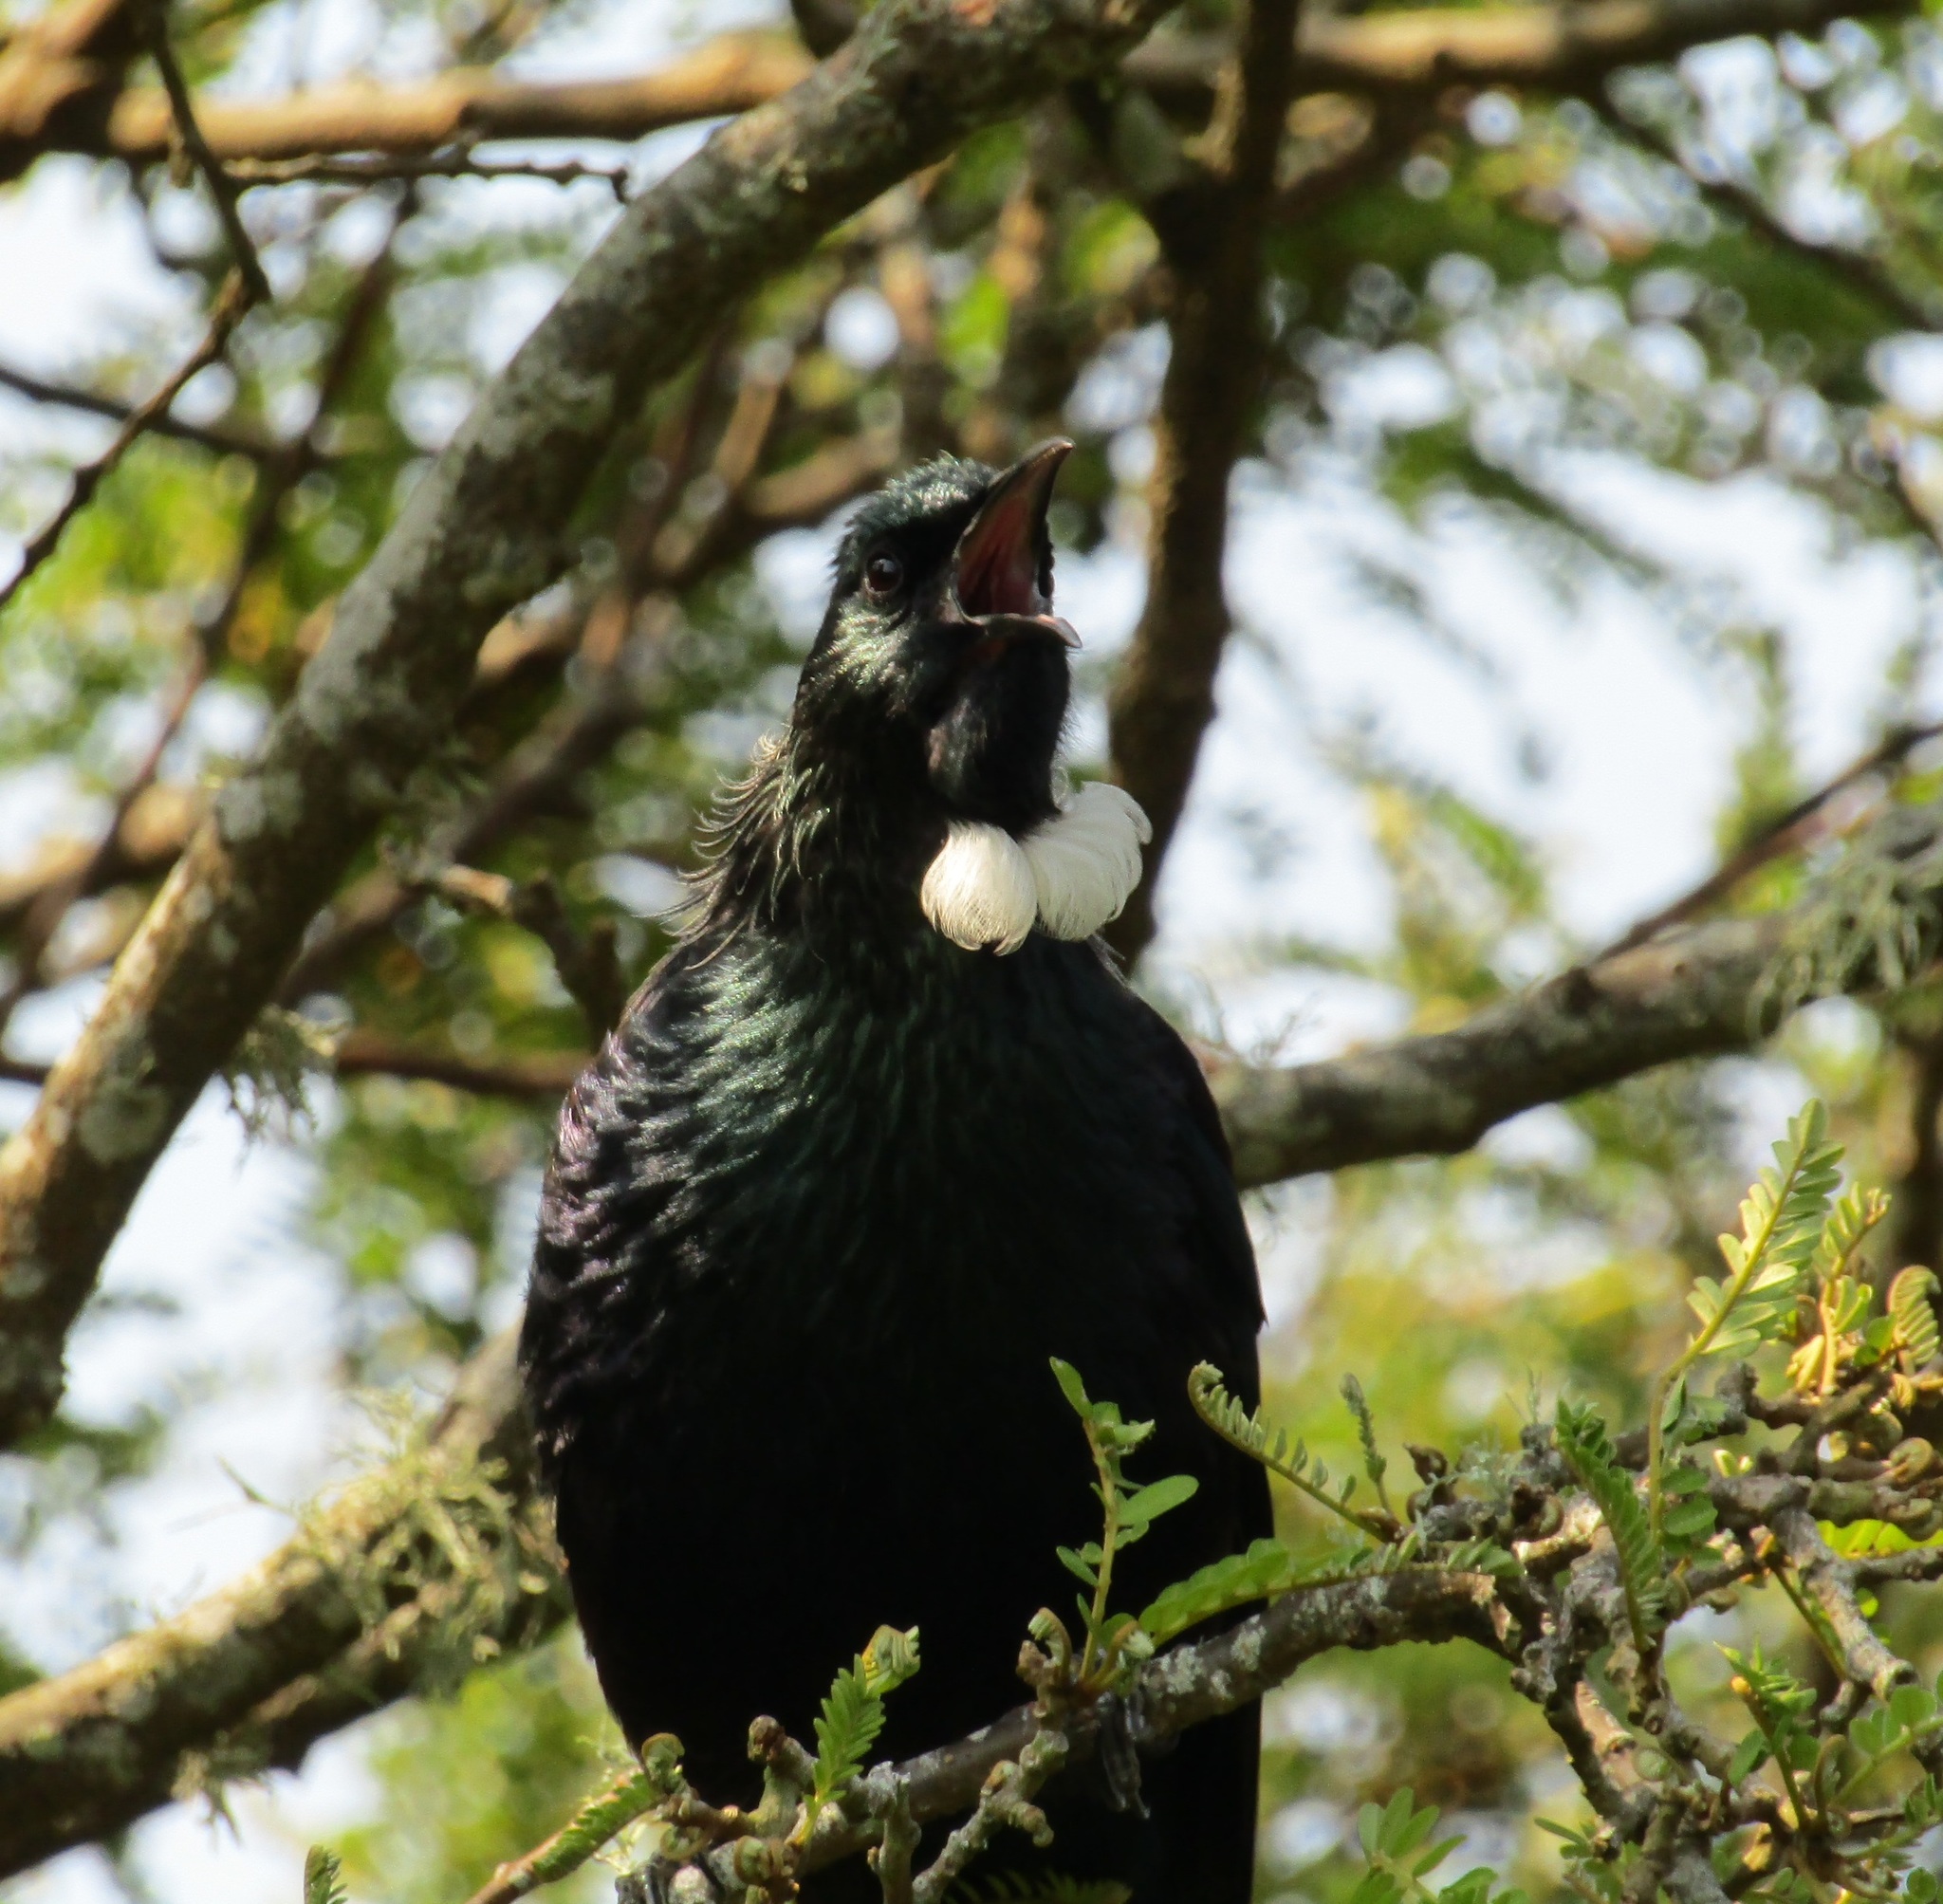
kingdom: Animalia
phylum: Chordata
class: Aves
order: Passeriformes
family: Meliphagidae
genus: Prosthemadera
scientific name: Prosthemadera novaeseelandiae
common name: Tui
